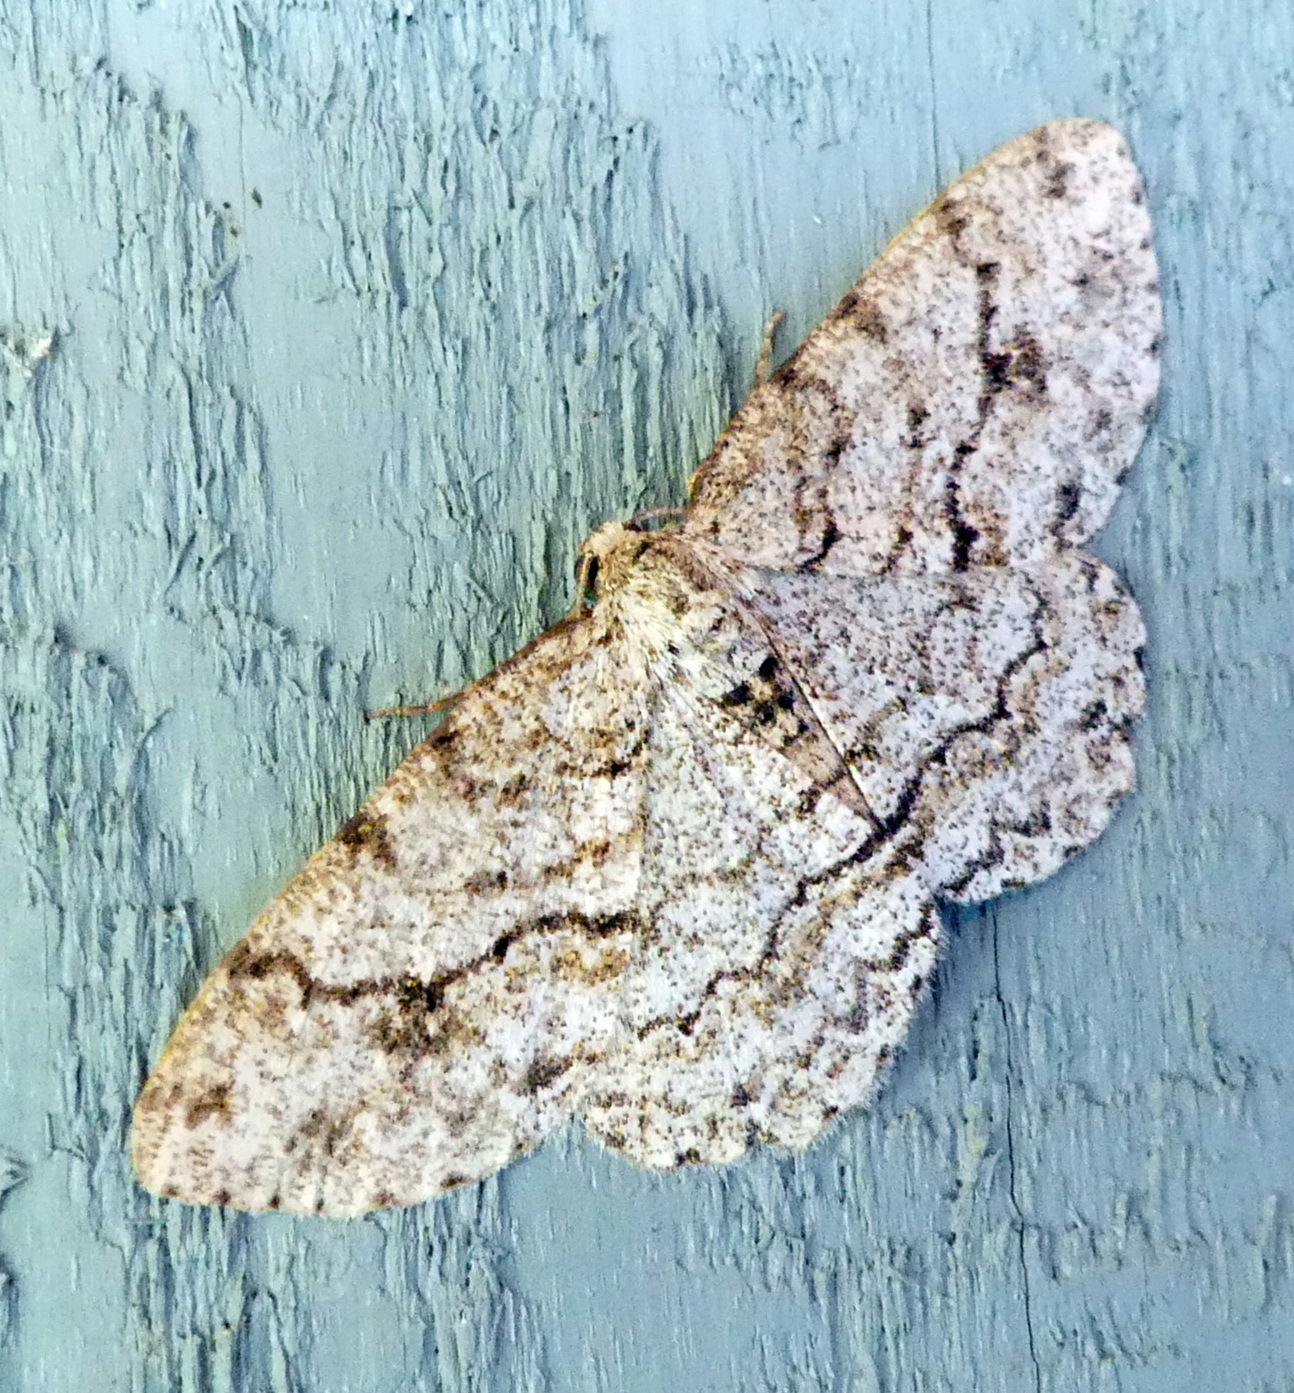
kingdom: Animalia
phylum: Arthropoda
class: Insecta
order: Lepidoptera
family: Geometridae
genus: Ectropis
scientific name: Ectropis crepuscularia
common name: Engrailed
